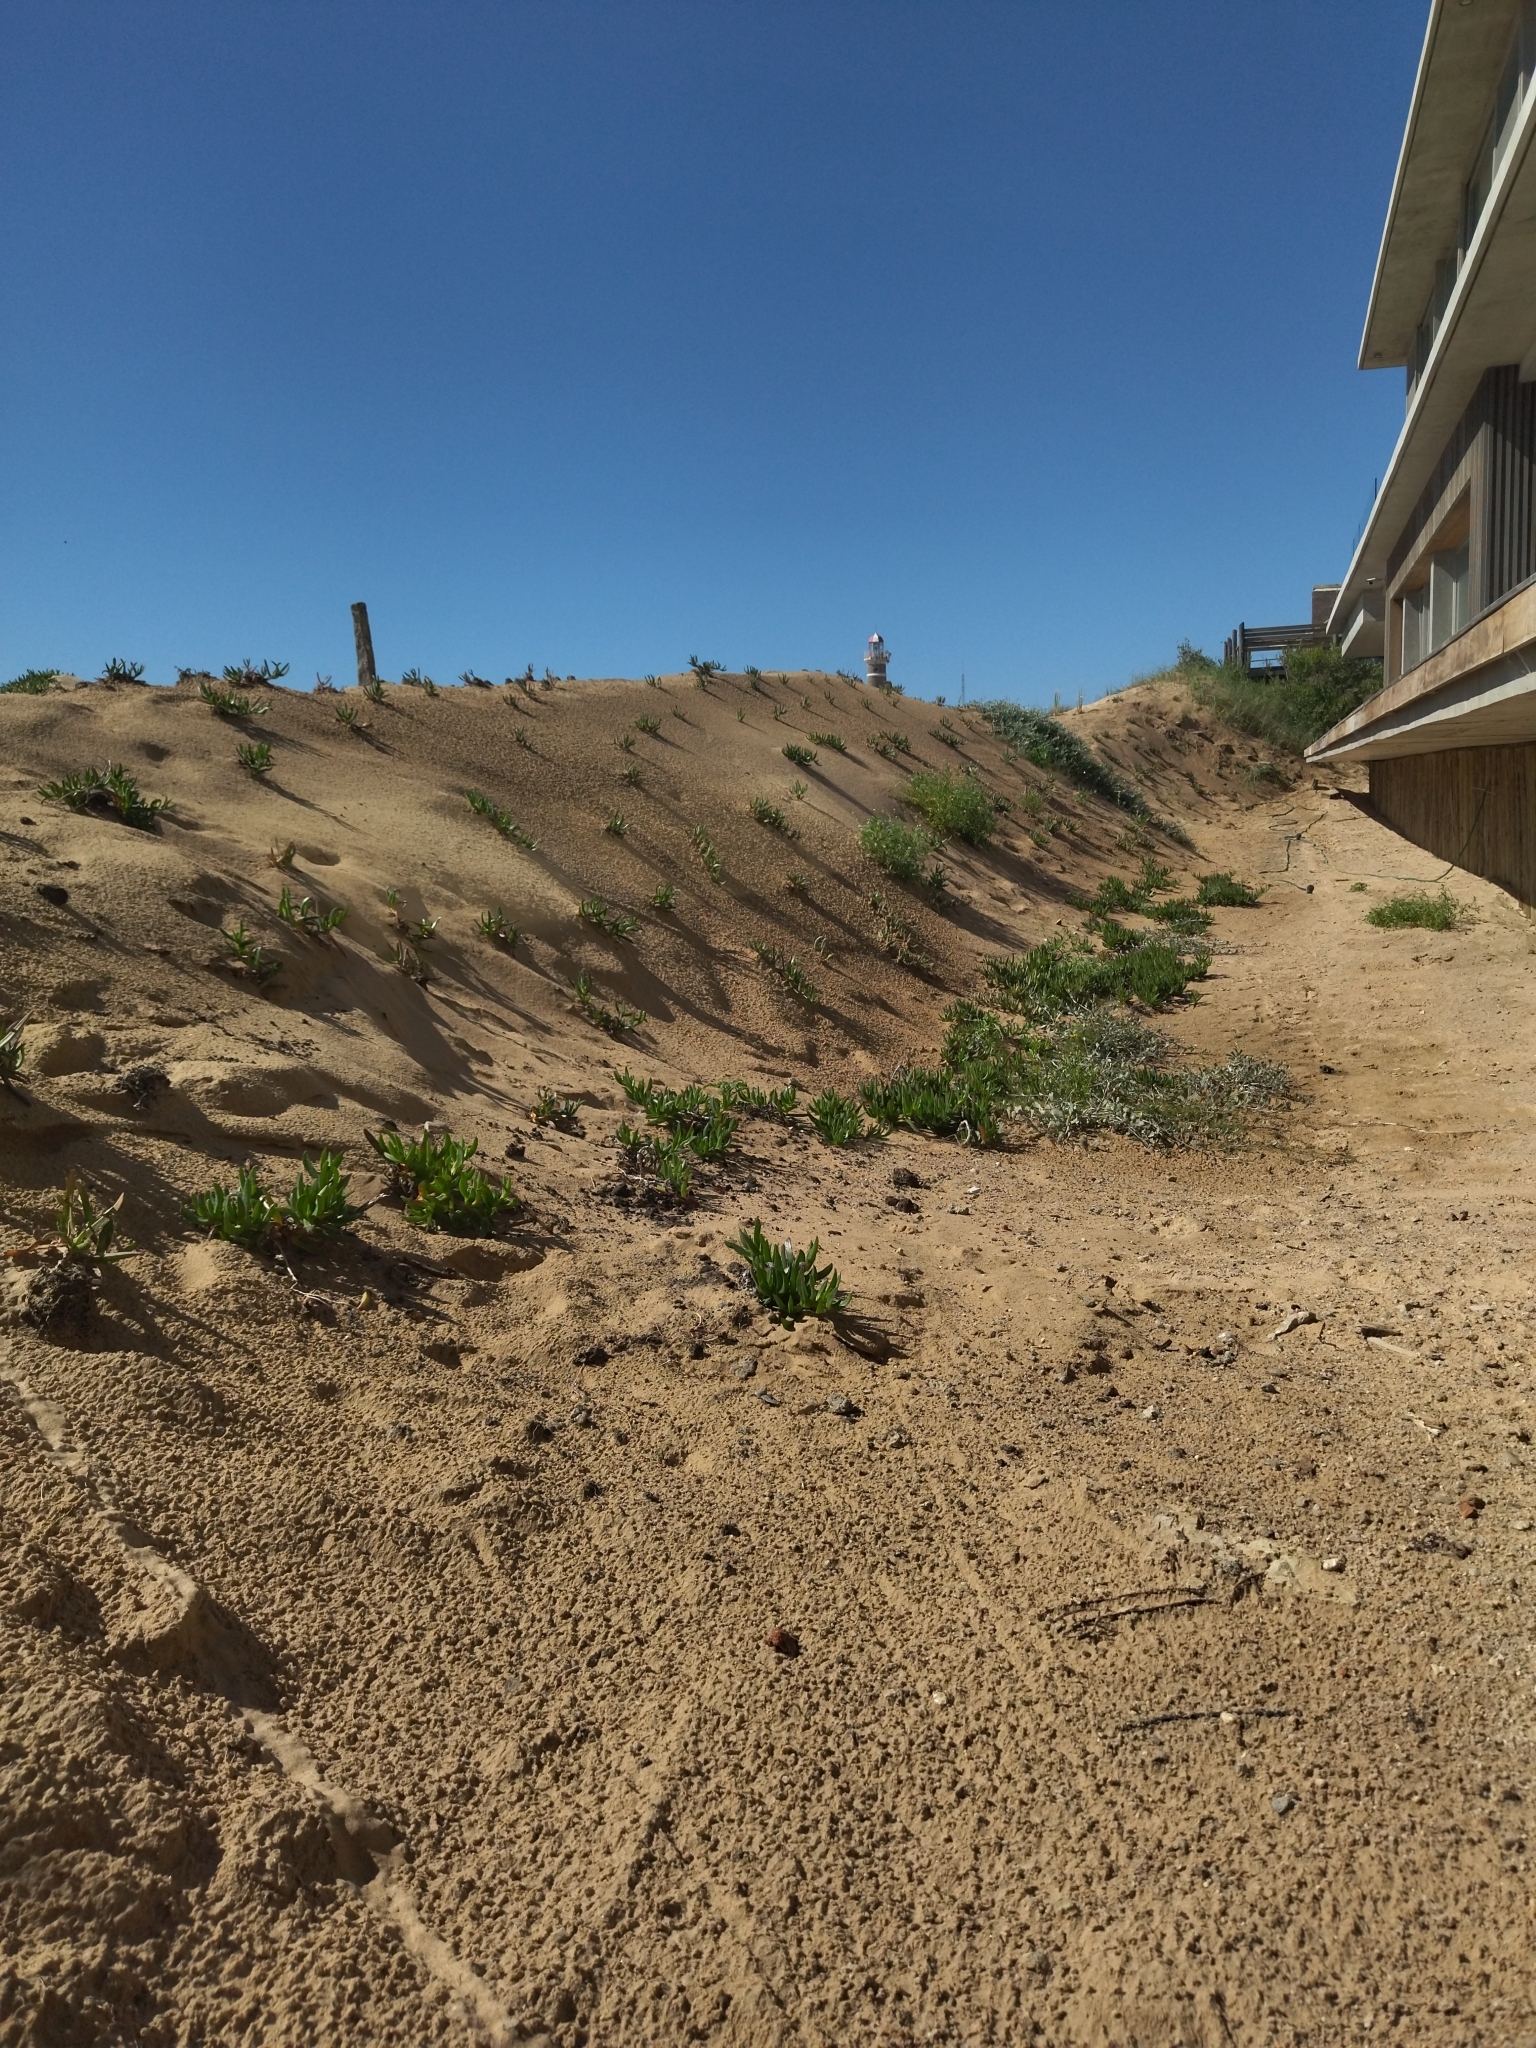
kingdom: Plantae
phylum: Tracheophyta
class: Magnoliopsida
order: Caryophyllales
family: Aizoaceae
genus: Carpobrotus
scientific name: Carpobrotus edulis
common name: Hottentot-fig
